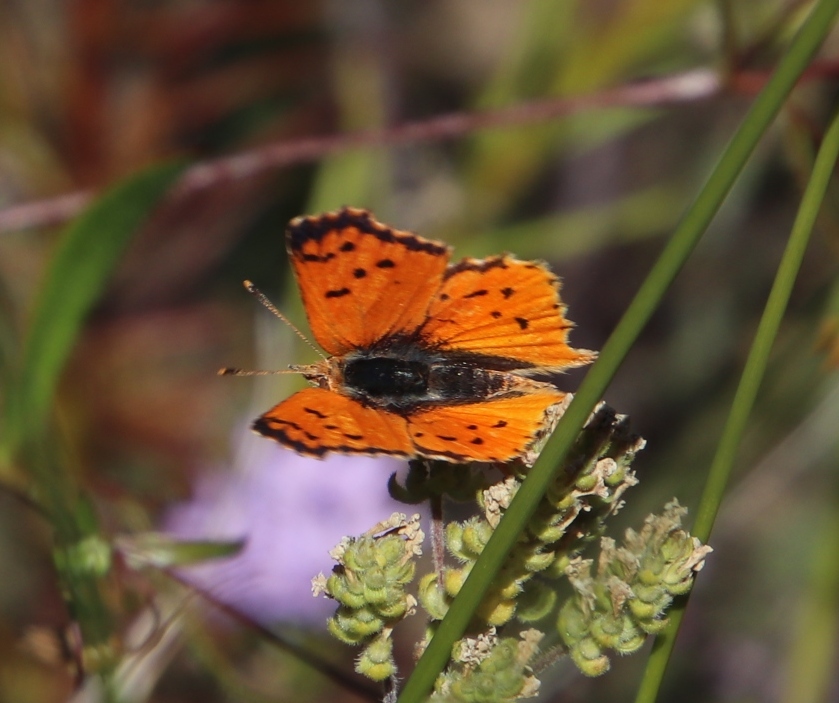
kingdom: Animalia
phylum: Arthropoda
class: Insecta
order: Lepidoptera
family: Lycaenidae
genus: Chrysoritis
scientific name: Chrysoritis
